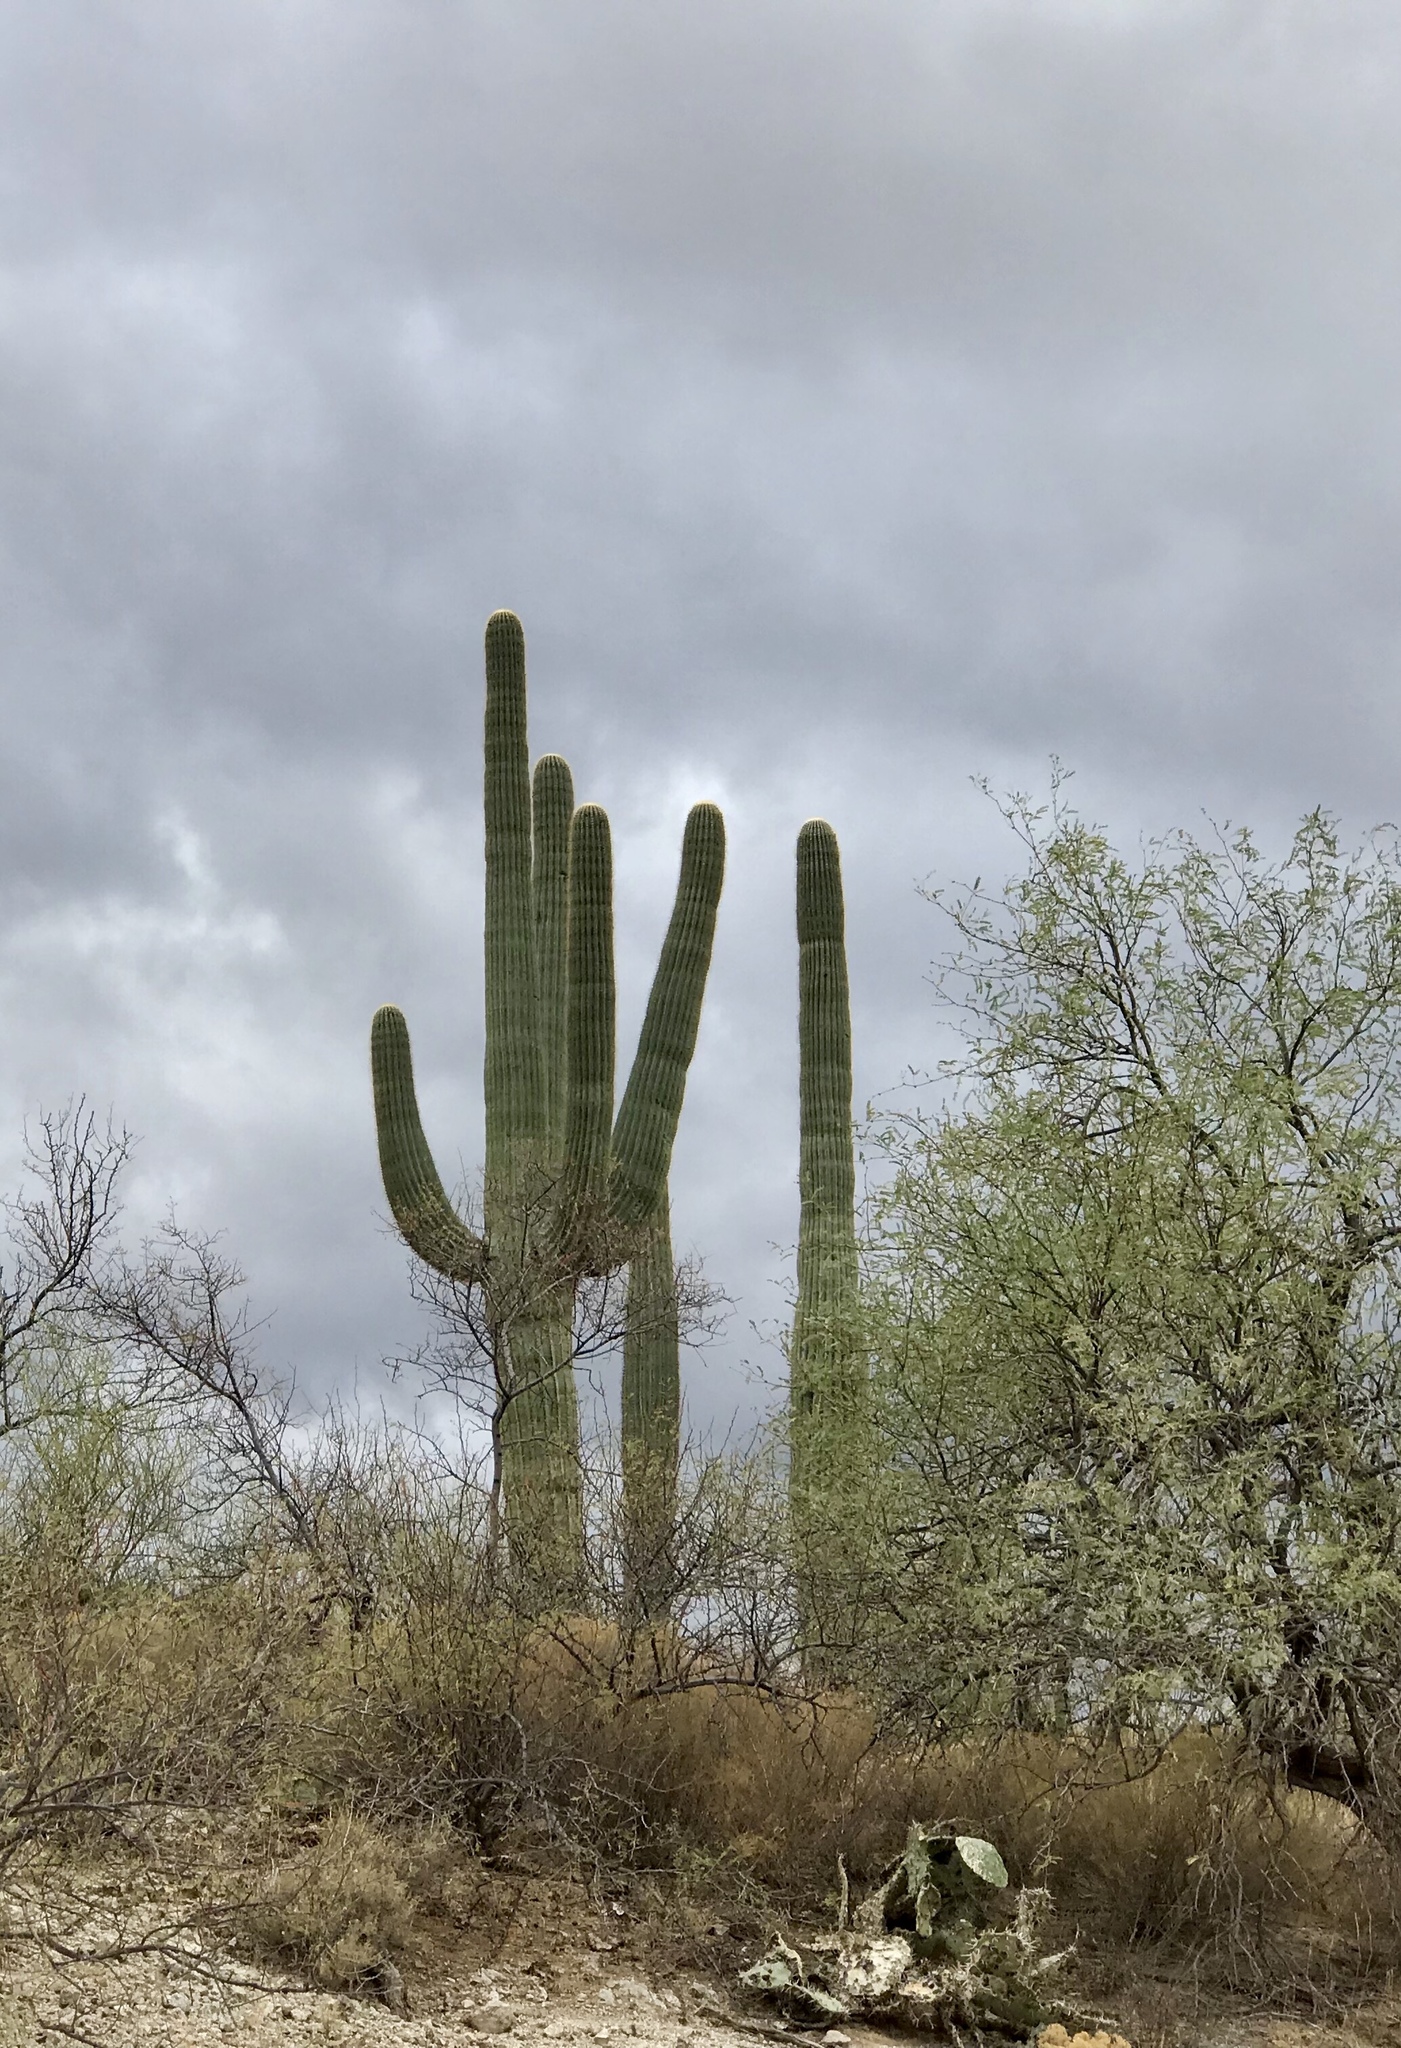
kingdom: Plantae
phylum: Tracheophyta
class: Magnoliopsida
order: Caryophyllales
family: Cactaceae
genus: Carnegiea
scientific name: Carnegiea gigantea
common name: Saguaro
